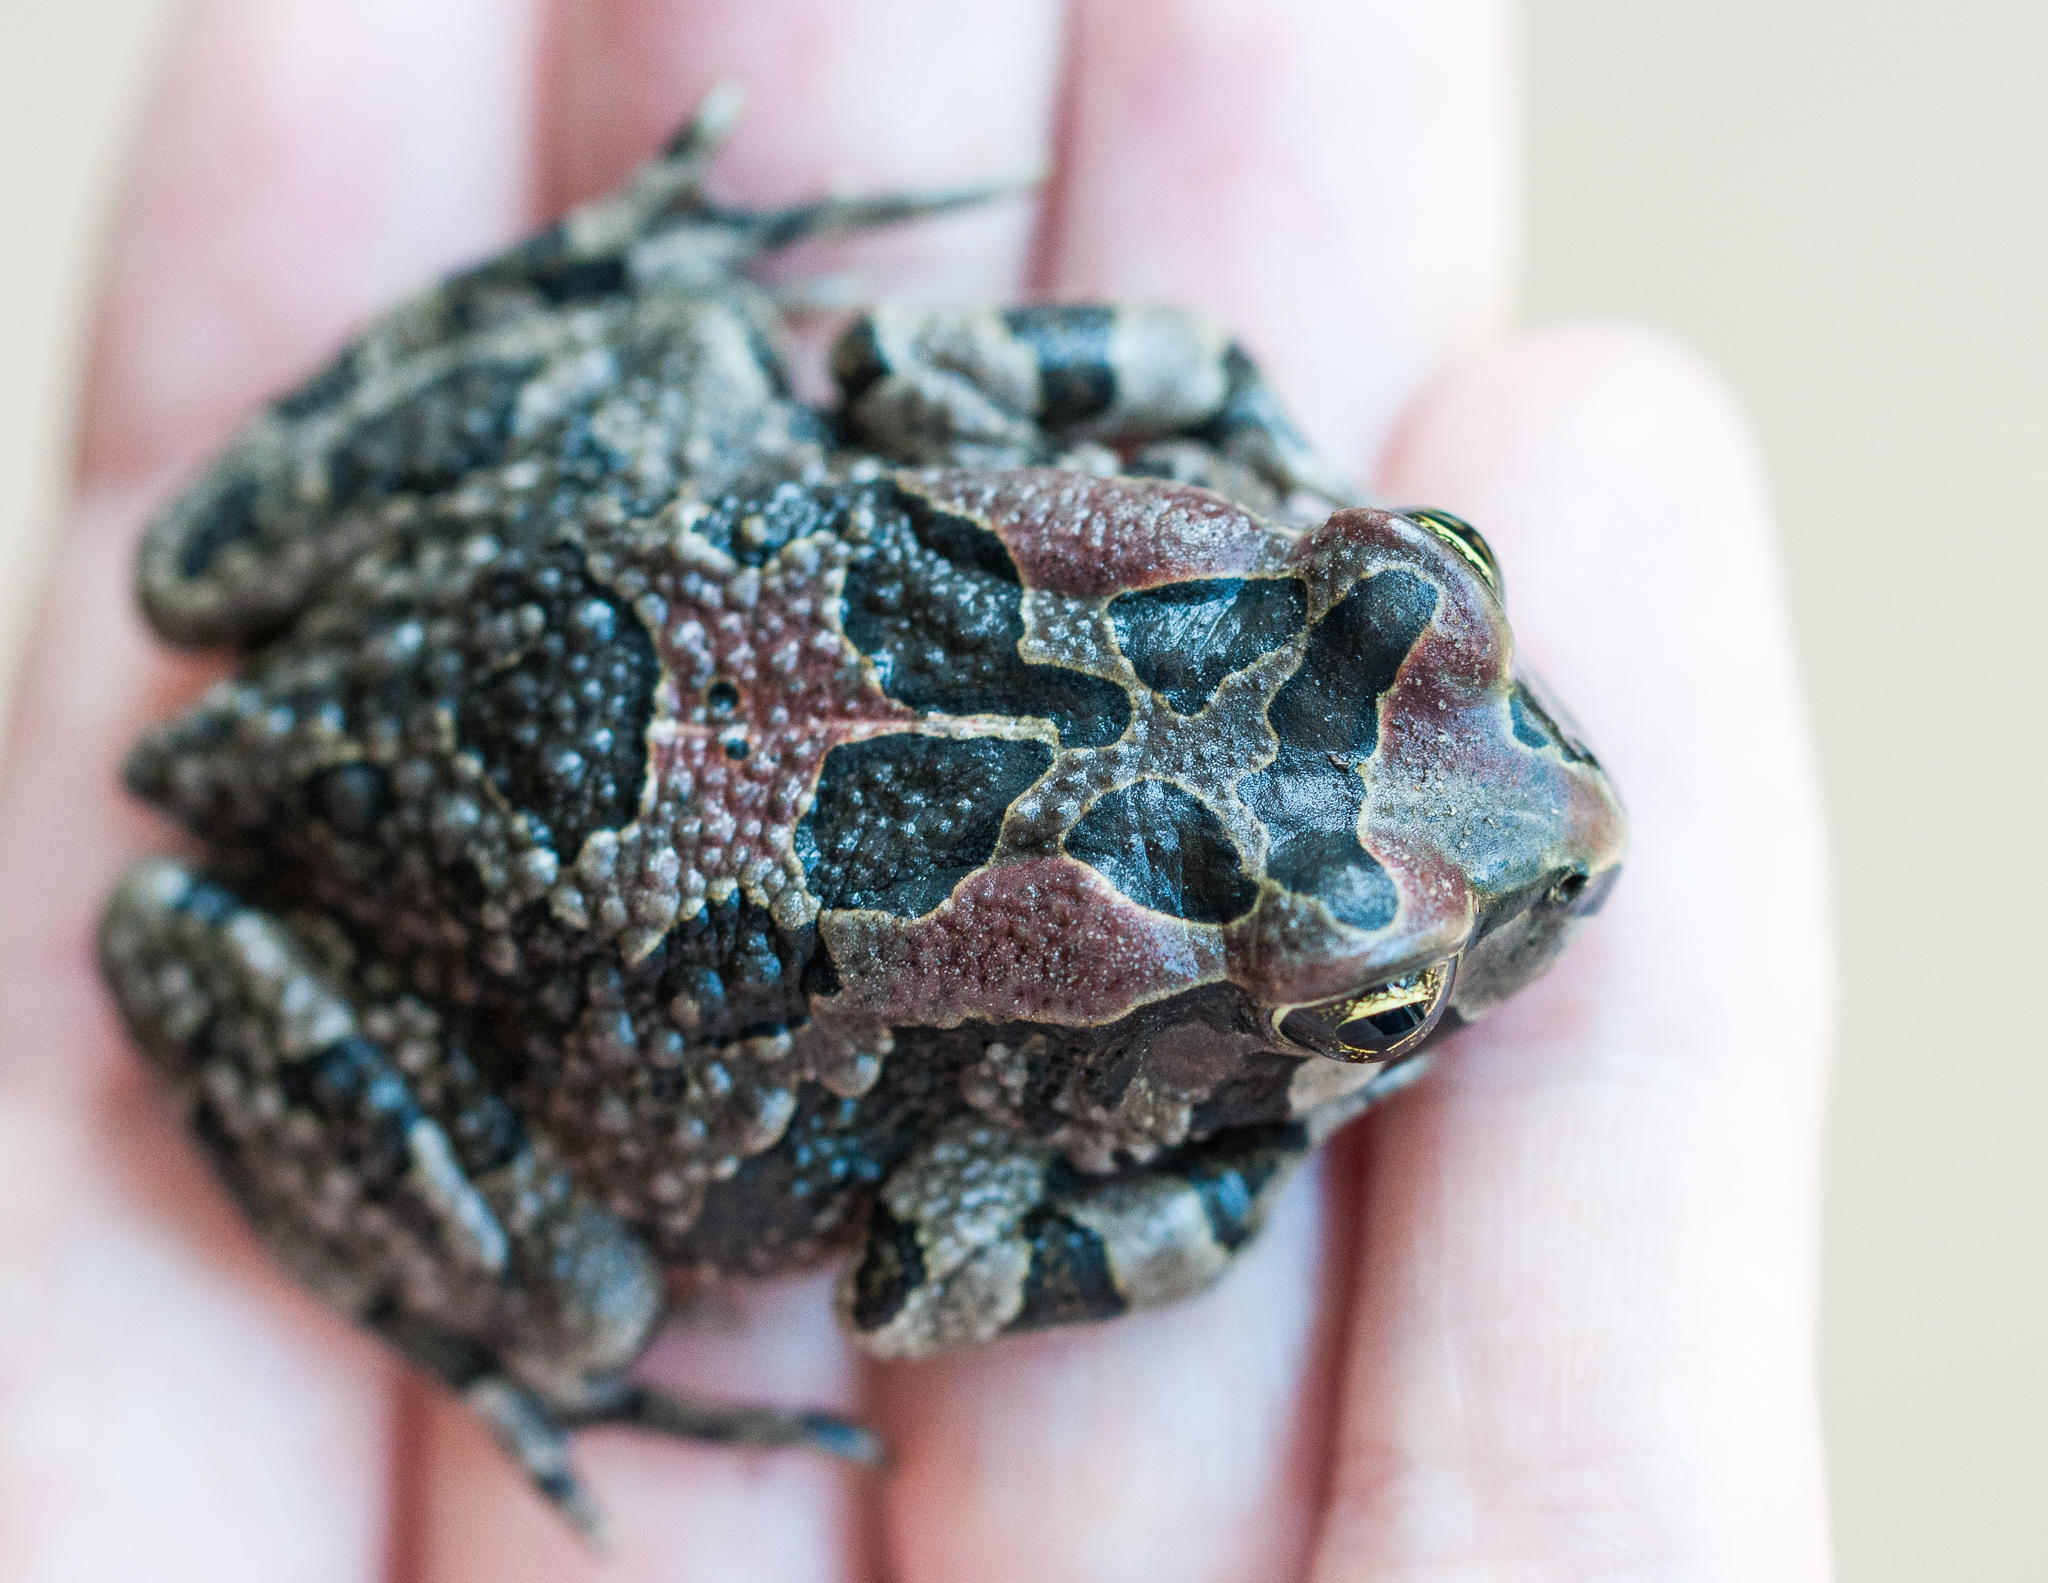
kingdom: Animalia
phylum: Chordata
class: Amphibia
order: Anura
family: Bufonidae
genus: Sclerophrys
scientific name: Sclerophrys capensis
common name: Ranger’s toad
